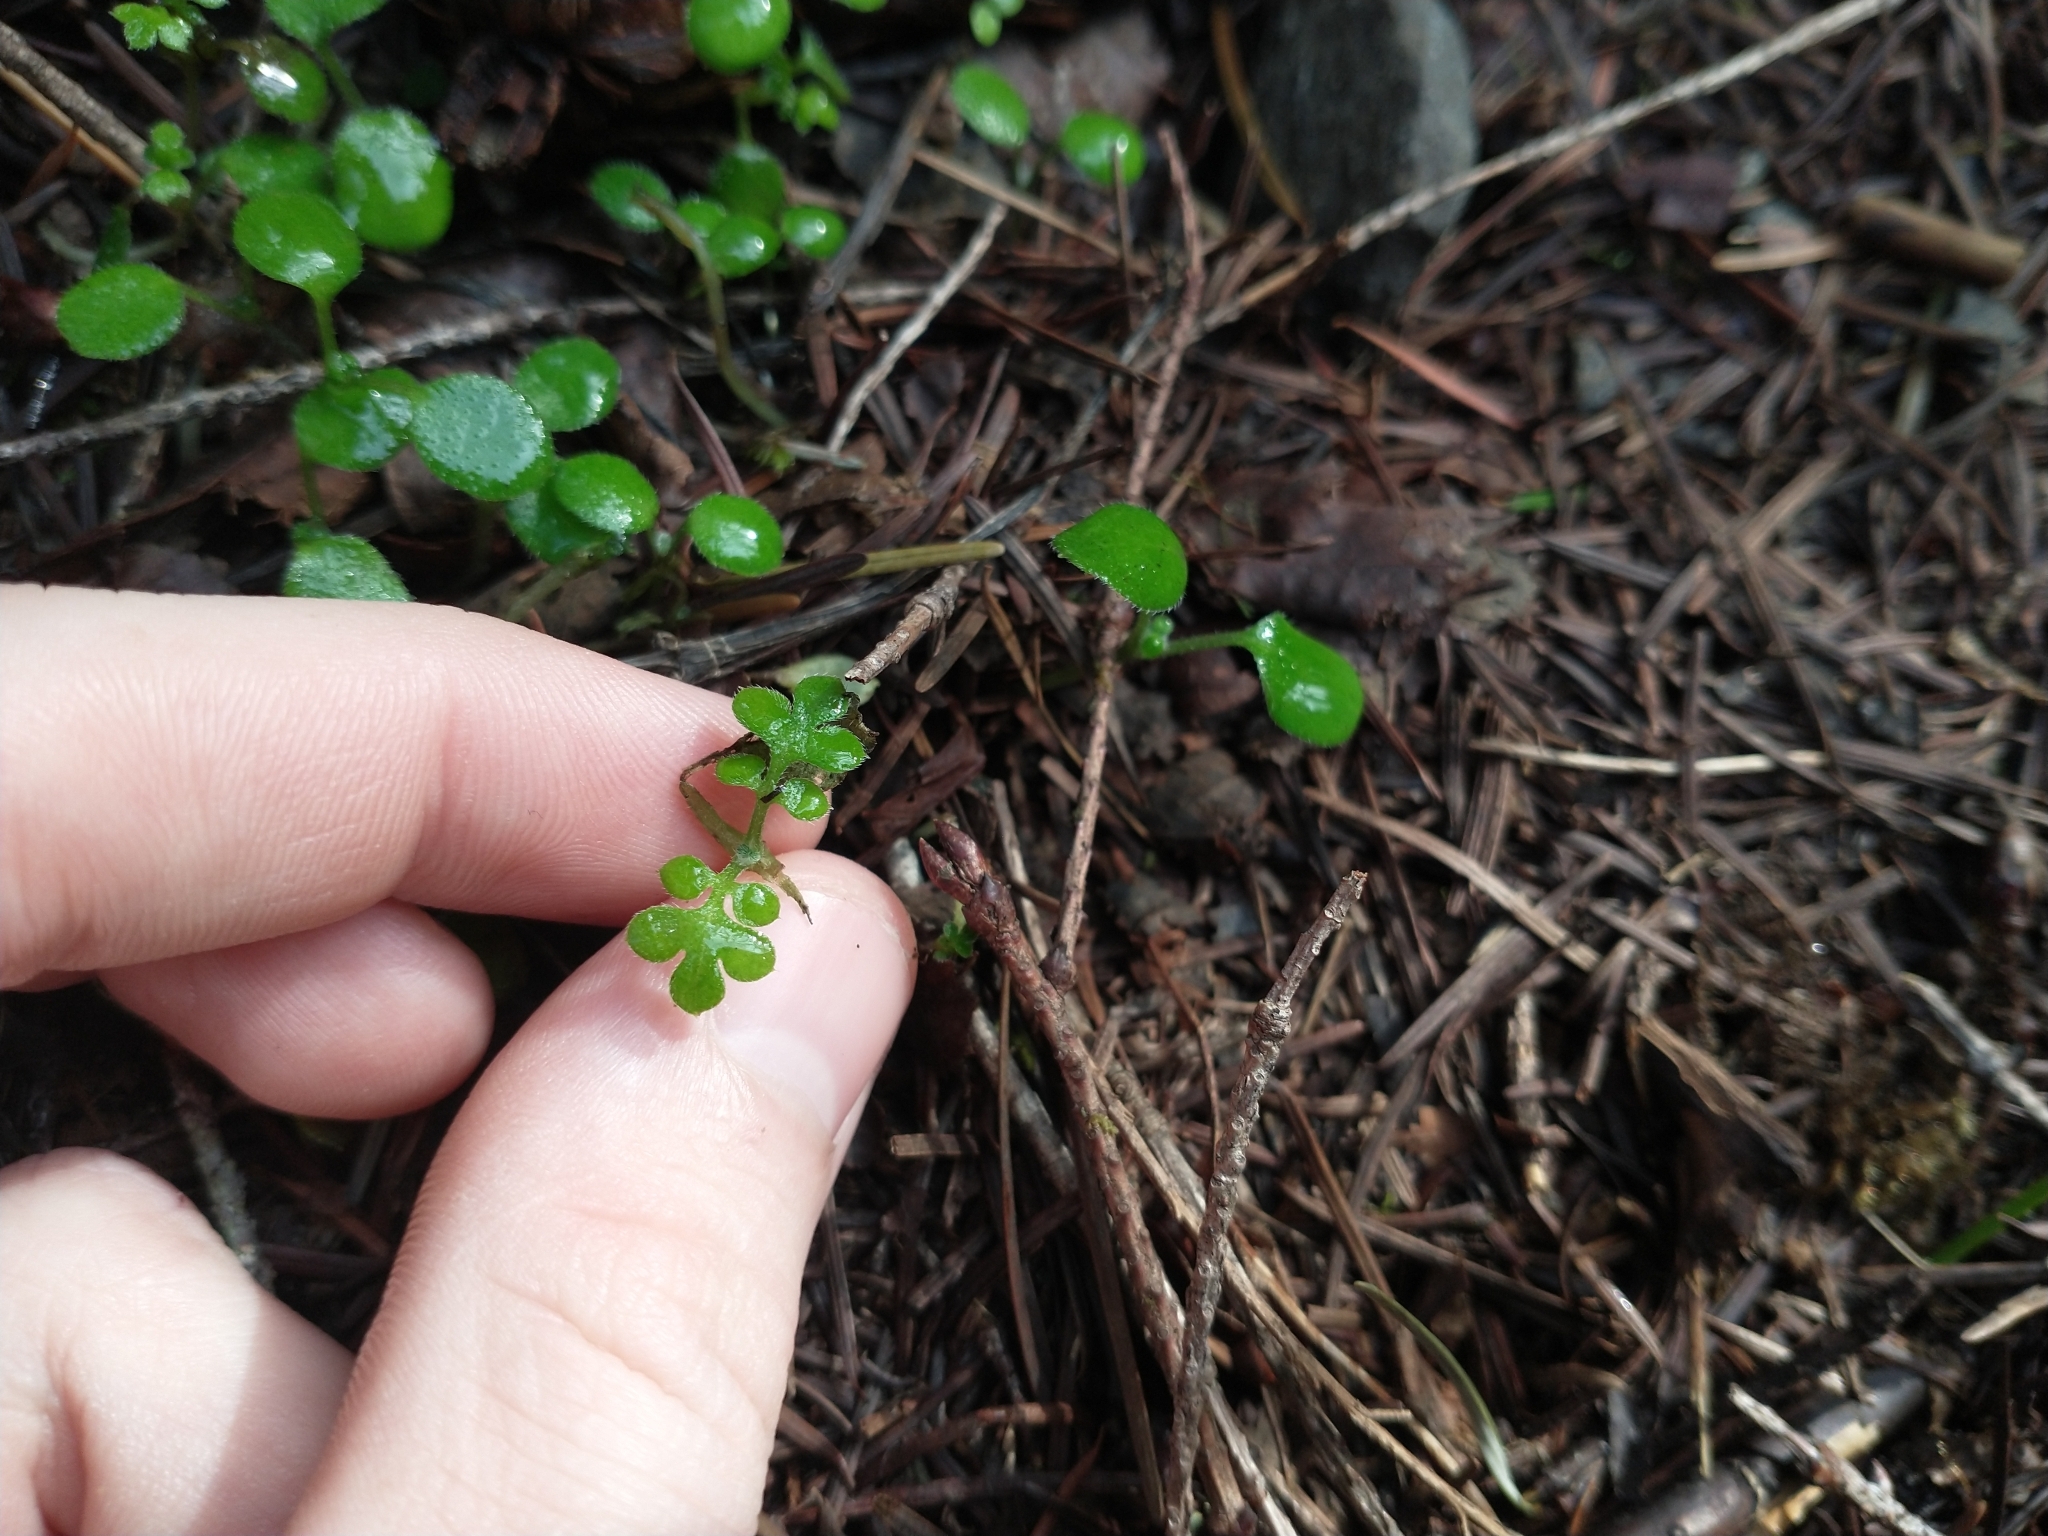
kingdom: Plantae
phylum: Tracheophyta
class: Magnoliopsida
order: Boraginales
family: Hydrophyllaceae
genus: Nemophila
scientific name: Nemophila parviflora
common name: Small-flowered baby-blue-eyes
